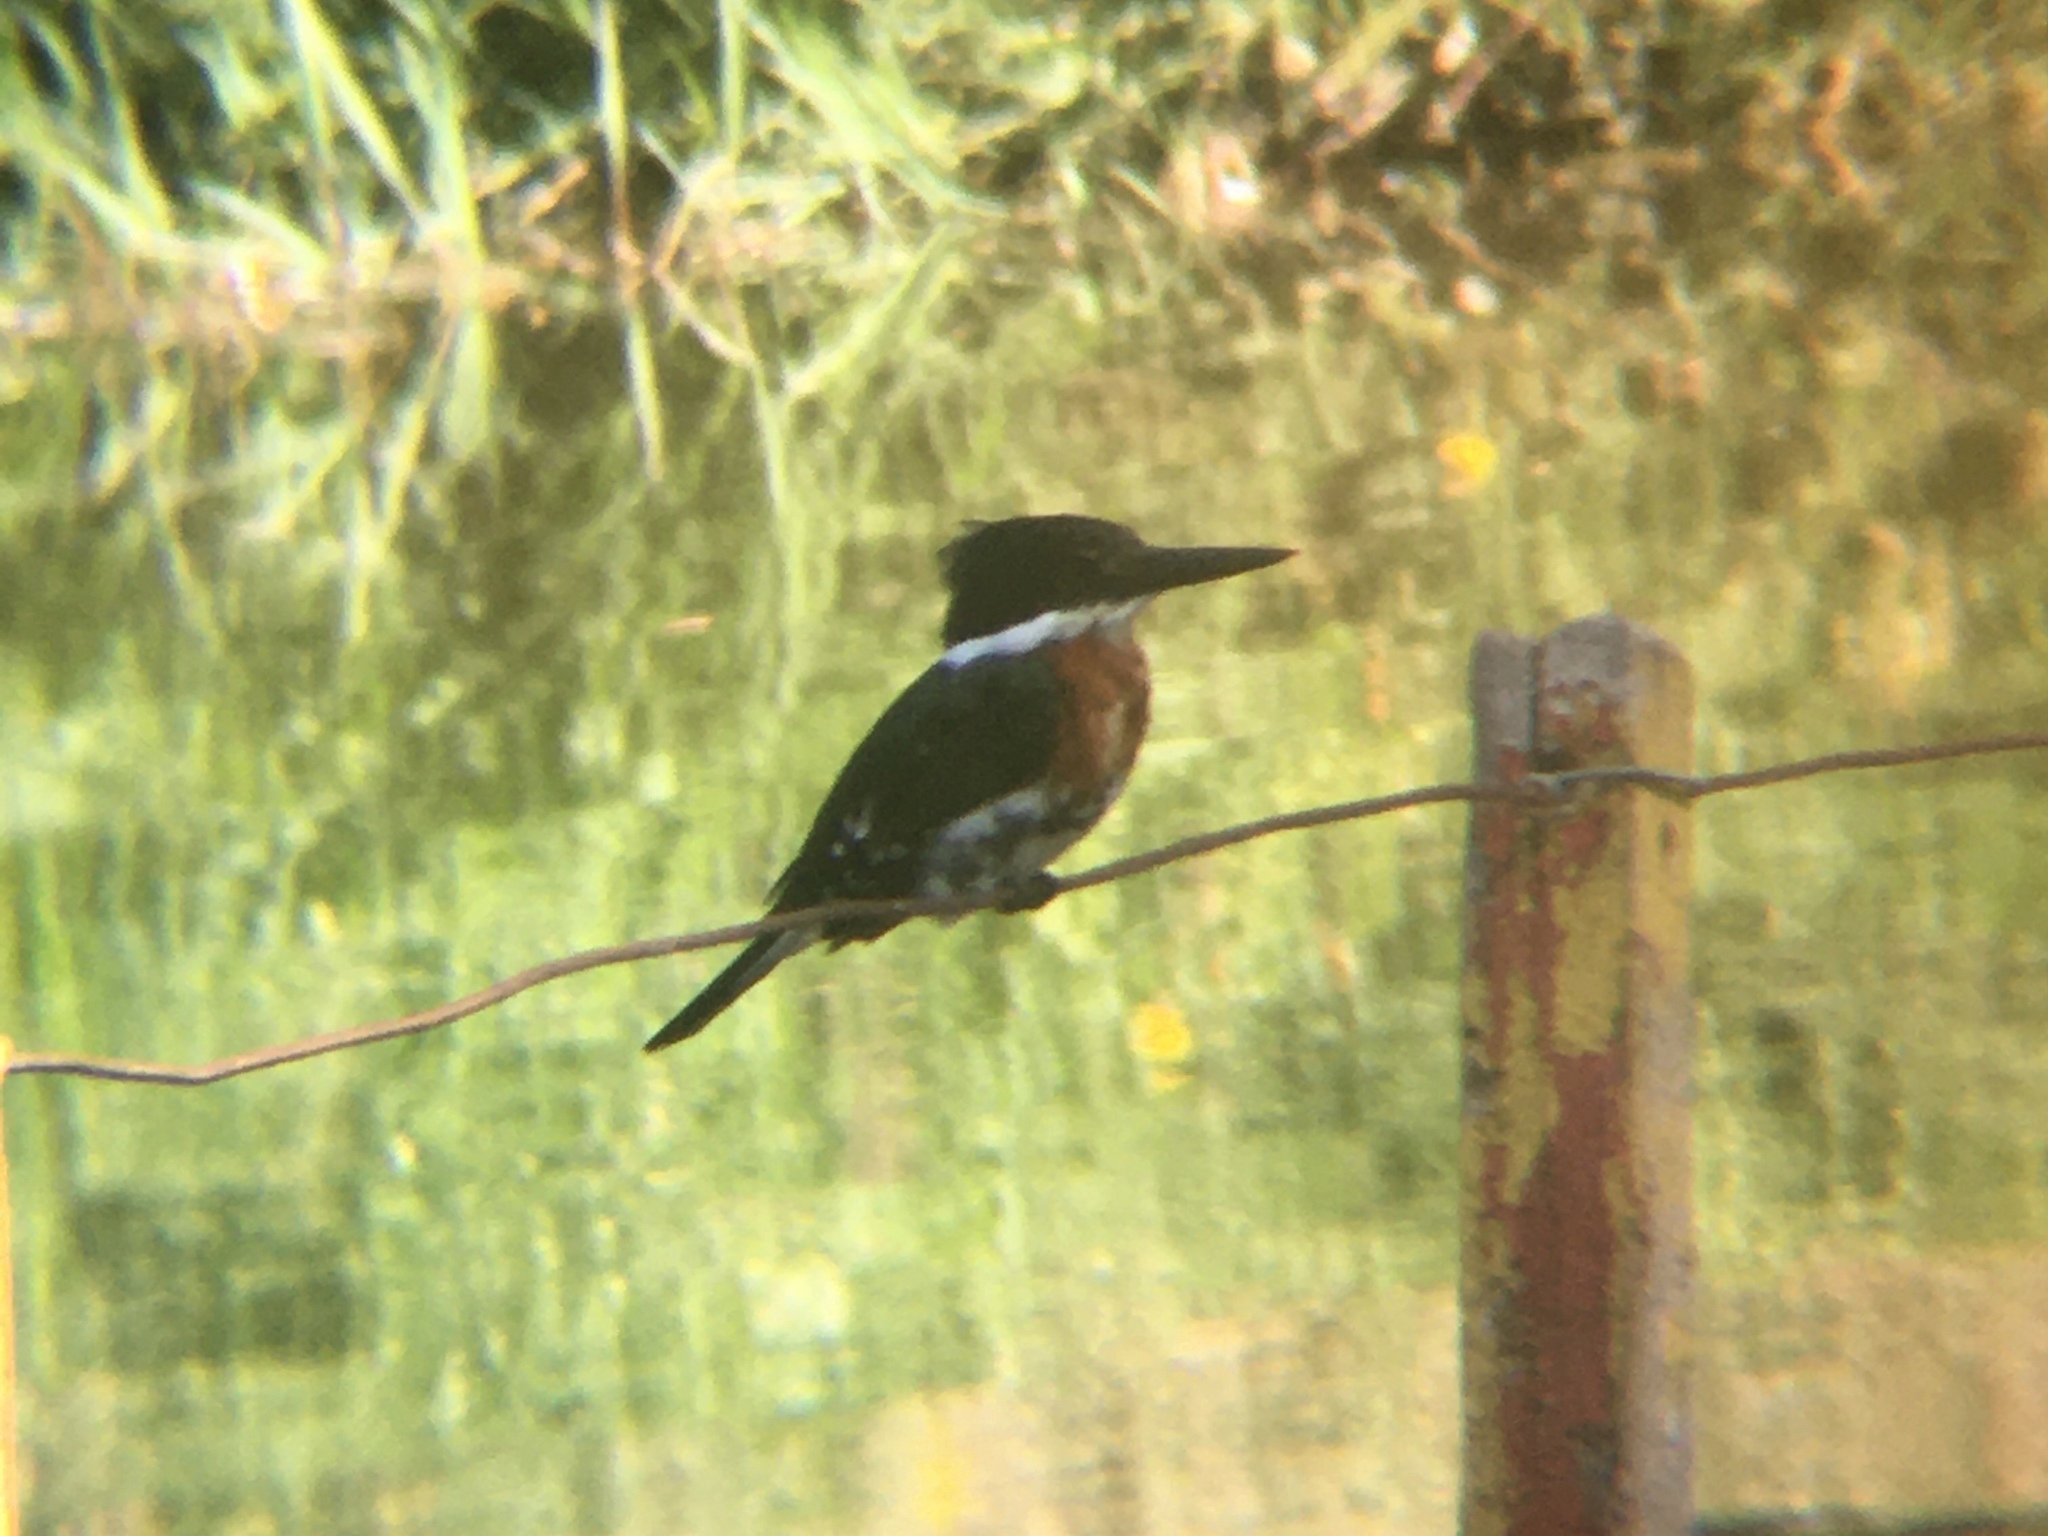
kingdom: Animalia
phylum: Chordata
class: Aves
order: Coraciiformes
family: Alcedinidae
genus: Chloroceryle
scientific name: Chloroceryle americana
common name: Green kingfisher
